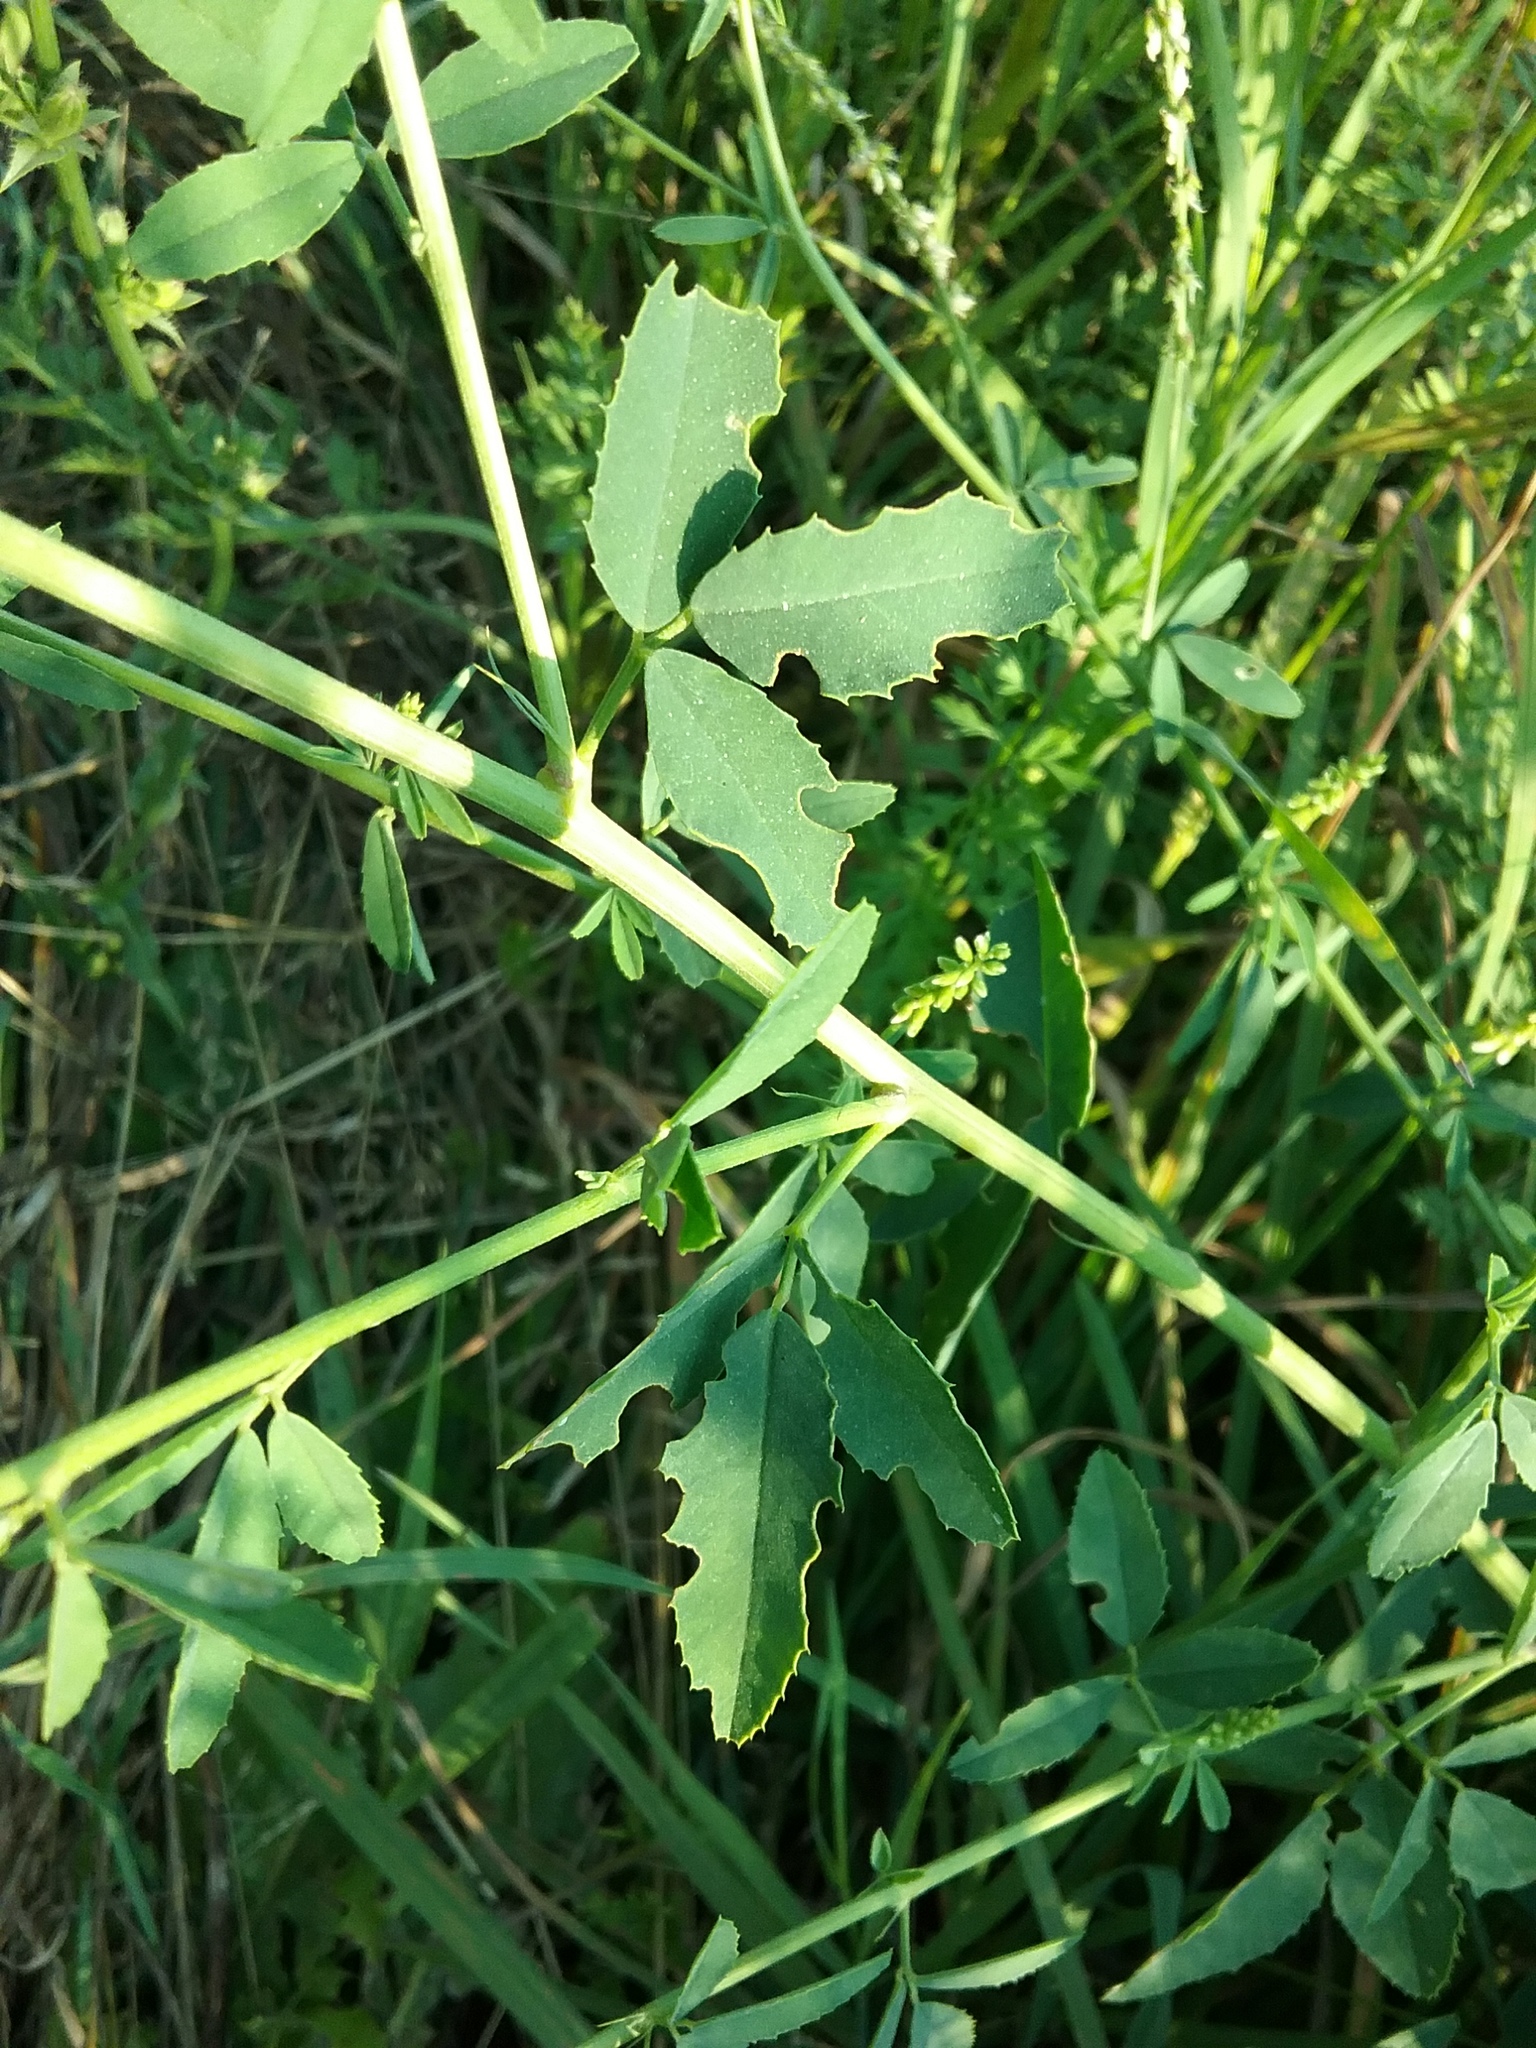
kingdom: Plantae
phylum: Tracheophyta
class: Magnoliopsida
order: Fabales
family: Fabaceae
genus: Melilotus
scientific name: Melilotus albus
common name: White melilot
